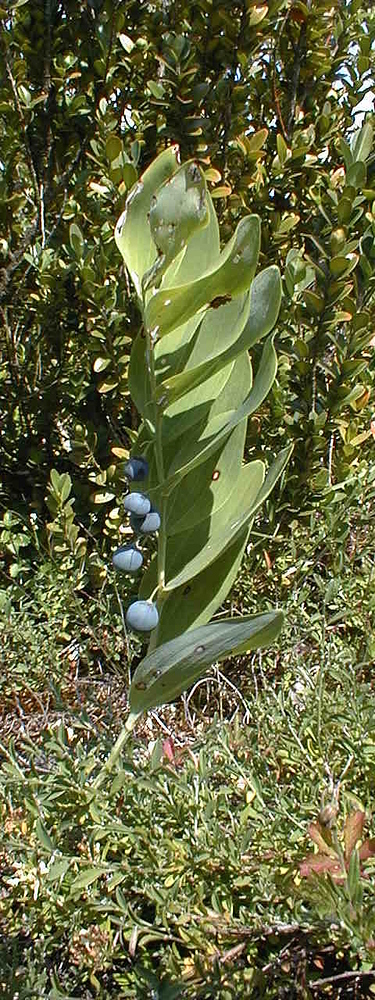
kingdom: Plantae
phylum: Tracheophyta
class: Liliopsida
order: Asparagales
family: Asparagaceae
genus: Polygonatum
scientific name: Polygonatum odoratum
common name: Angular solomon's-seal
